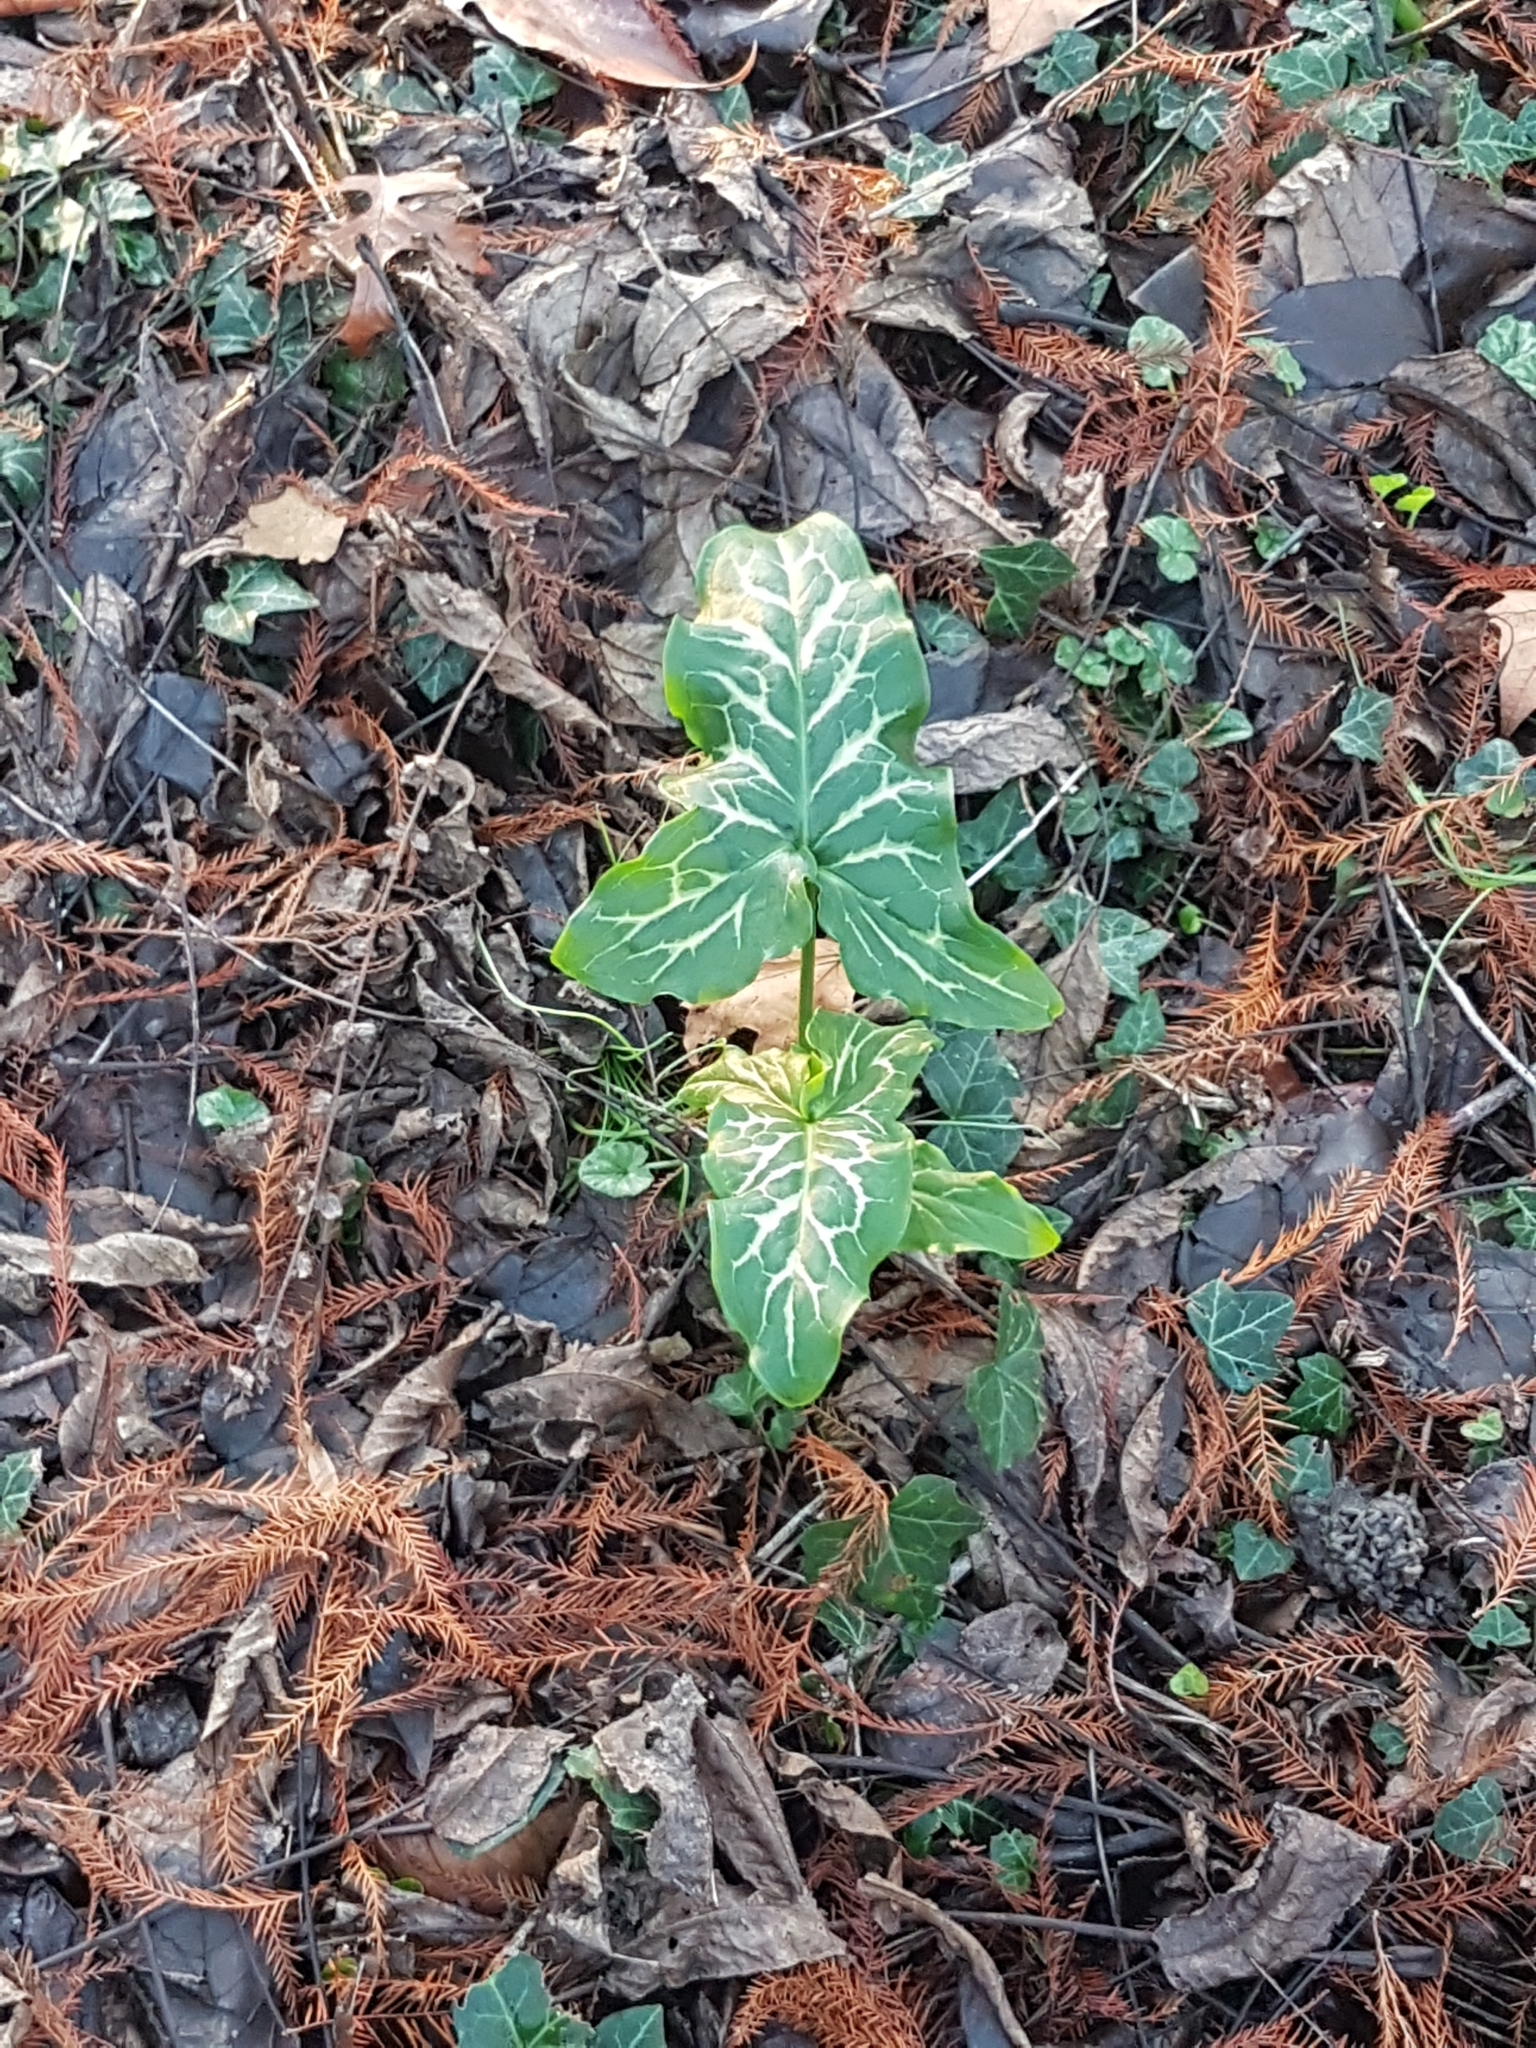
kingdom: Plantae
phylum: Tracheophyta
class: Liliopsida
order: Alismatales
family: Araceae
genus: Arum
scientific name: Arum italicum
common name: Italian lords-and-ladies
